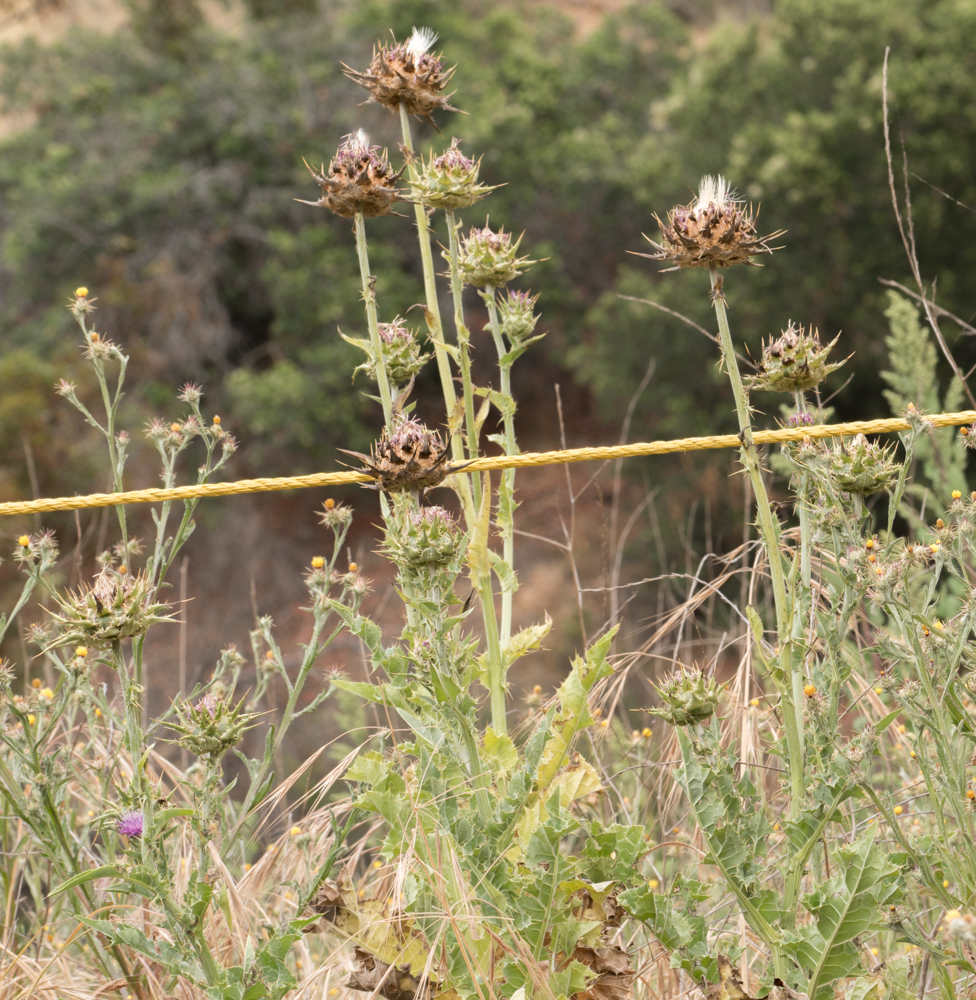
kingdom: Plantae
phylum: Tracheophyta
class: Magnoliopsida
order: Asterales
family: Asteraceae
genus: Silybum
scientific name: Silybum marianum
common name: Milk thistle
